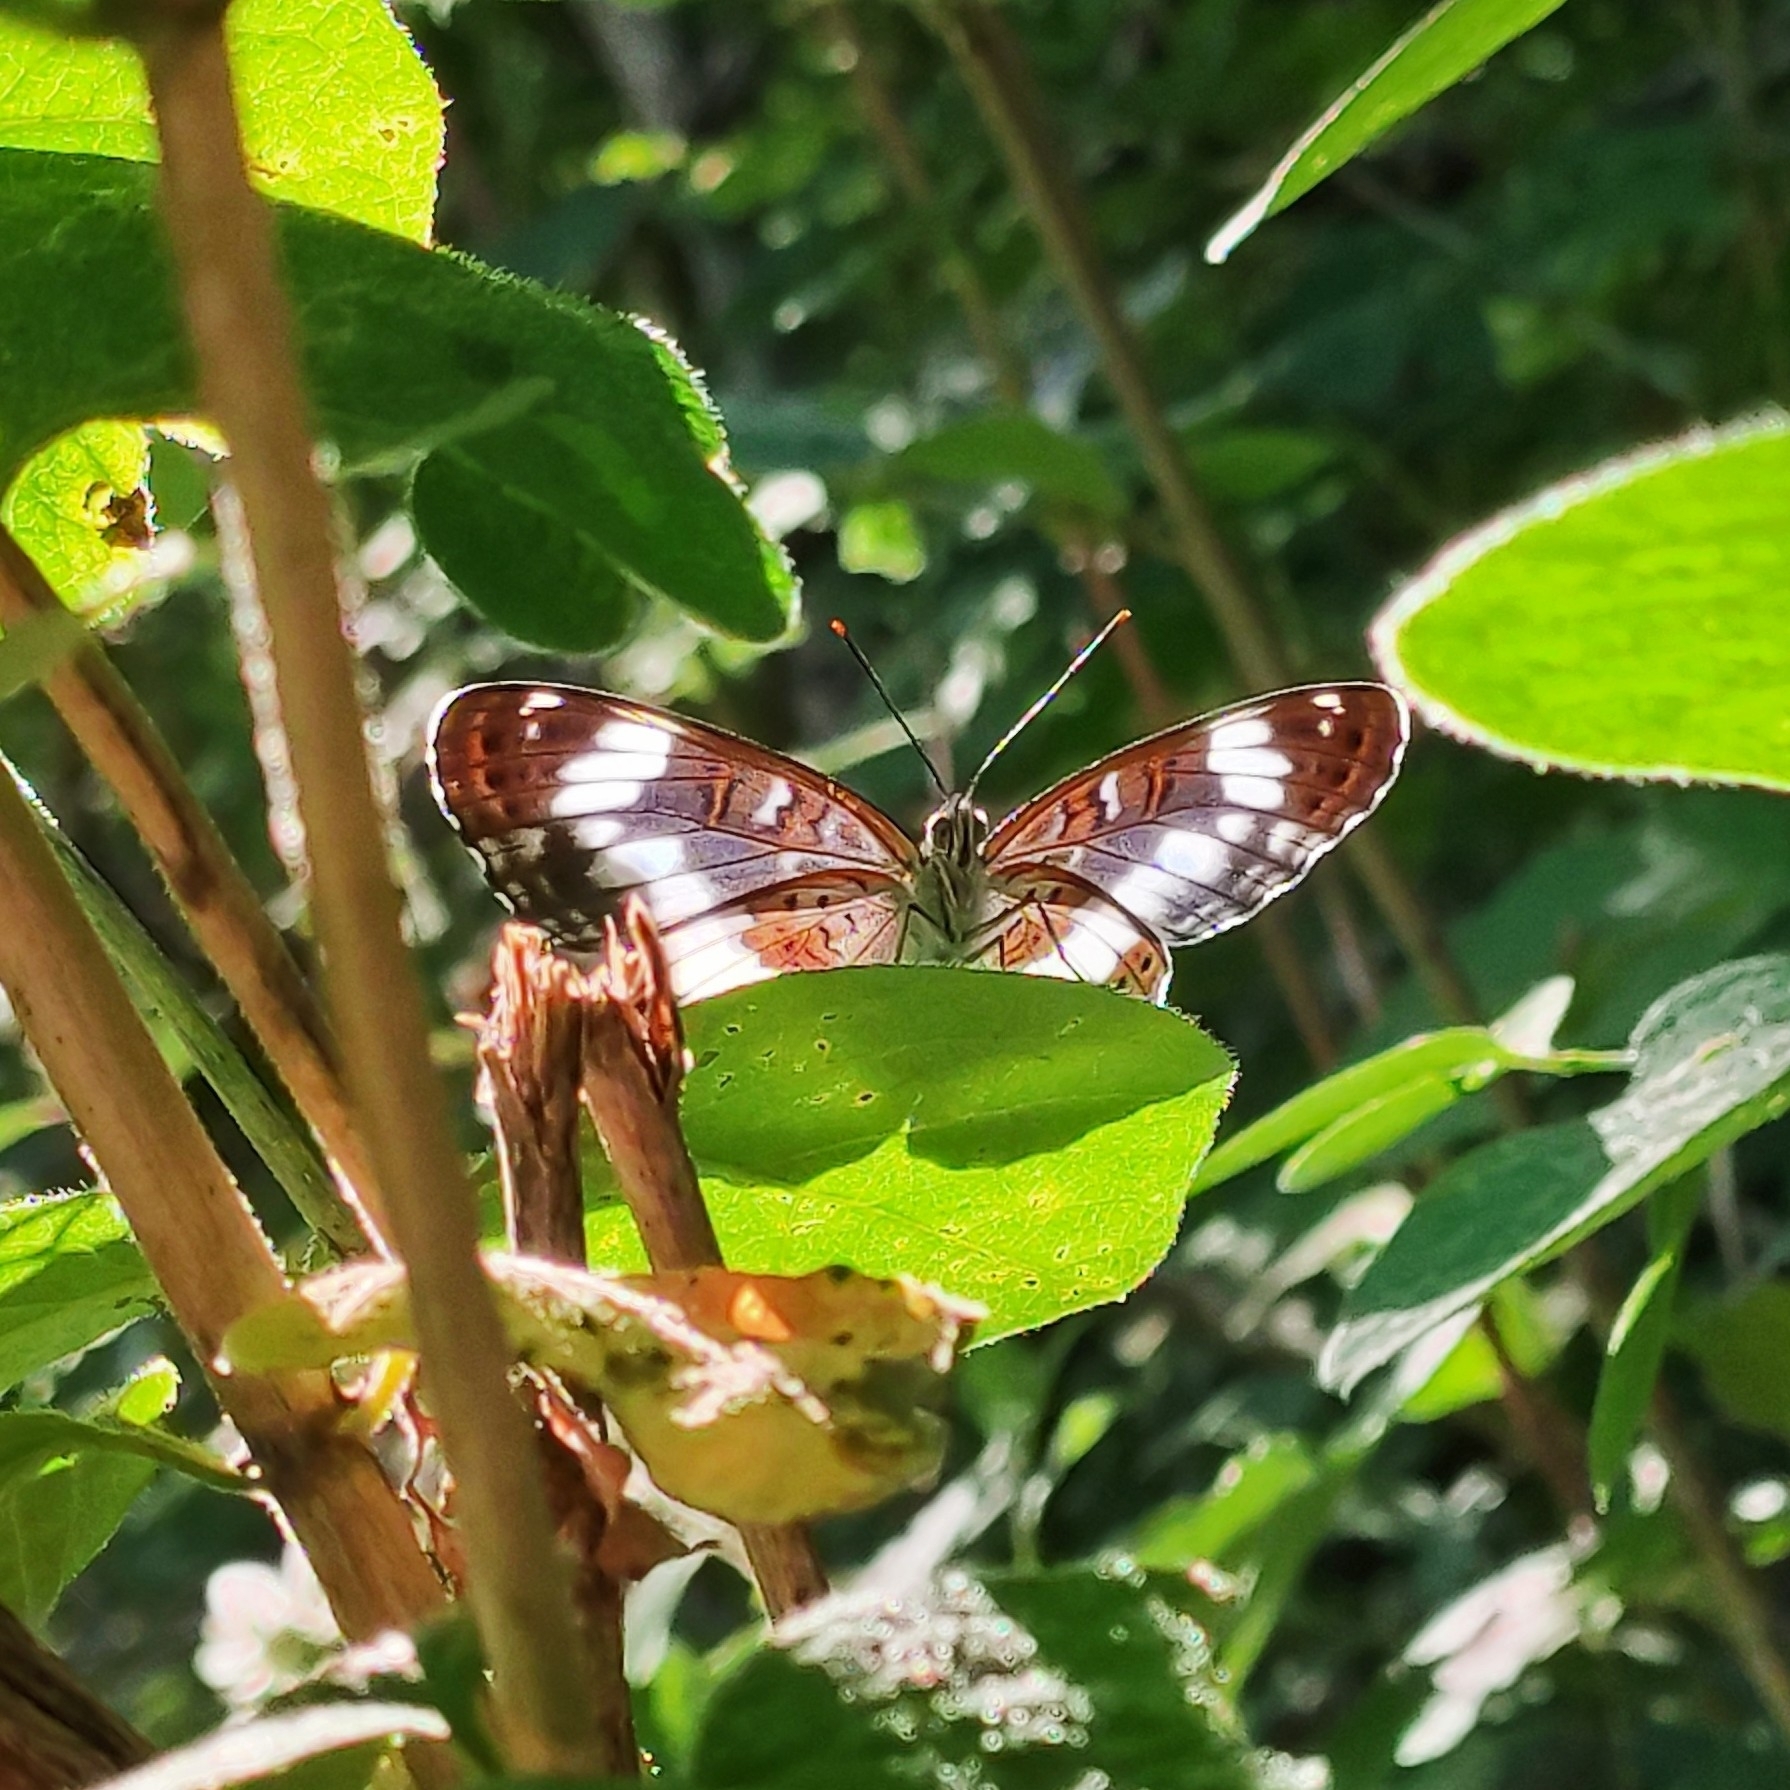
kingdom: Animalia
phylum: Arthropoda
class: Insecta
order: Lepidoptera
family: Nymphalidae
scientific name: Nymphalidae
